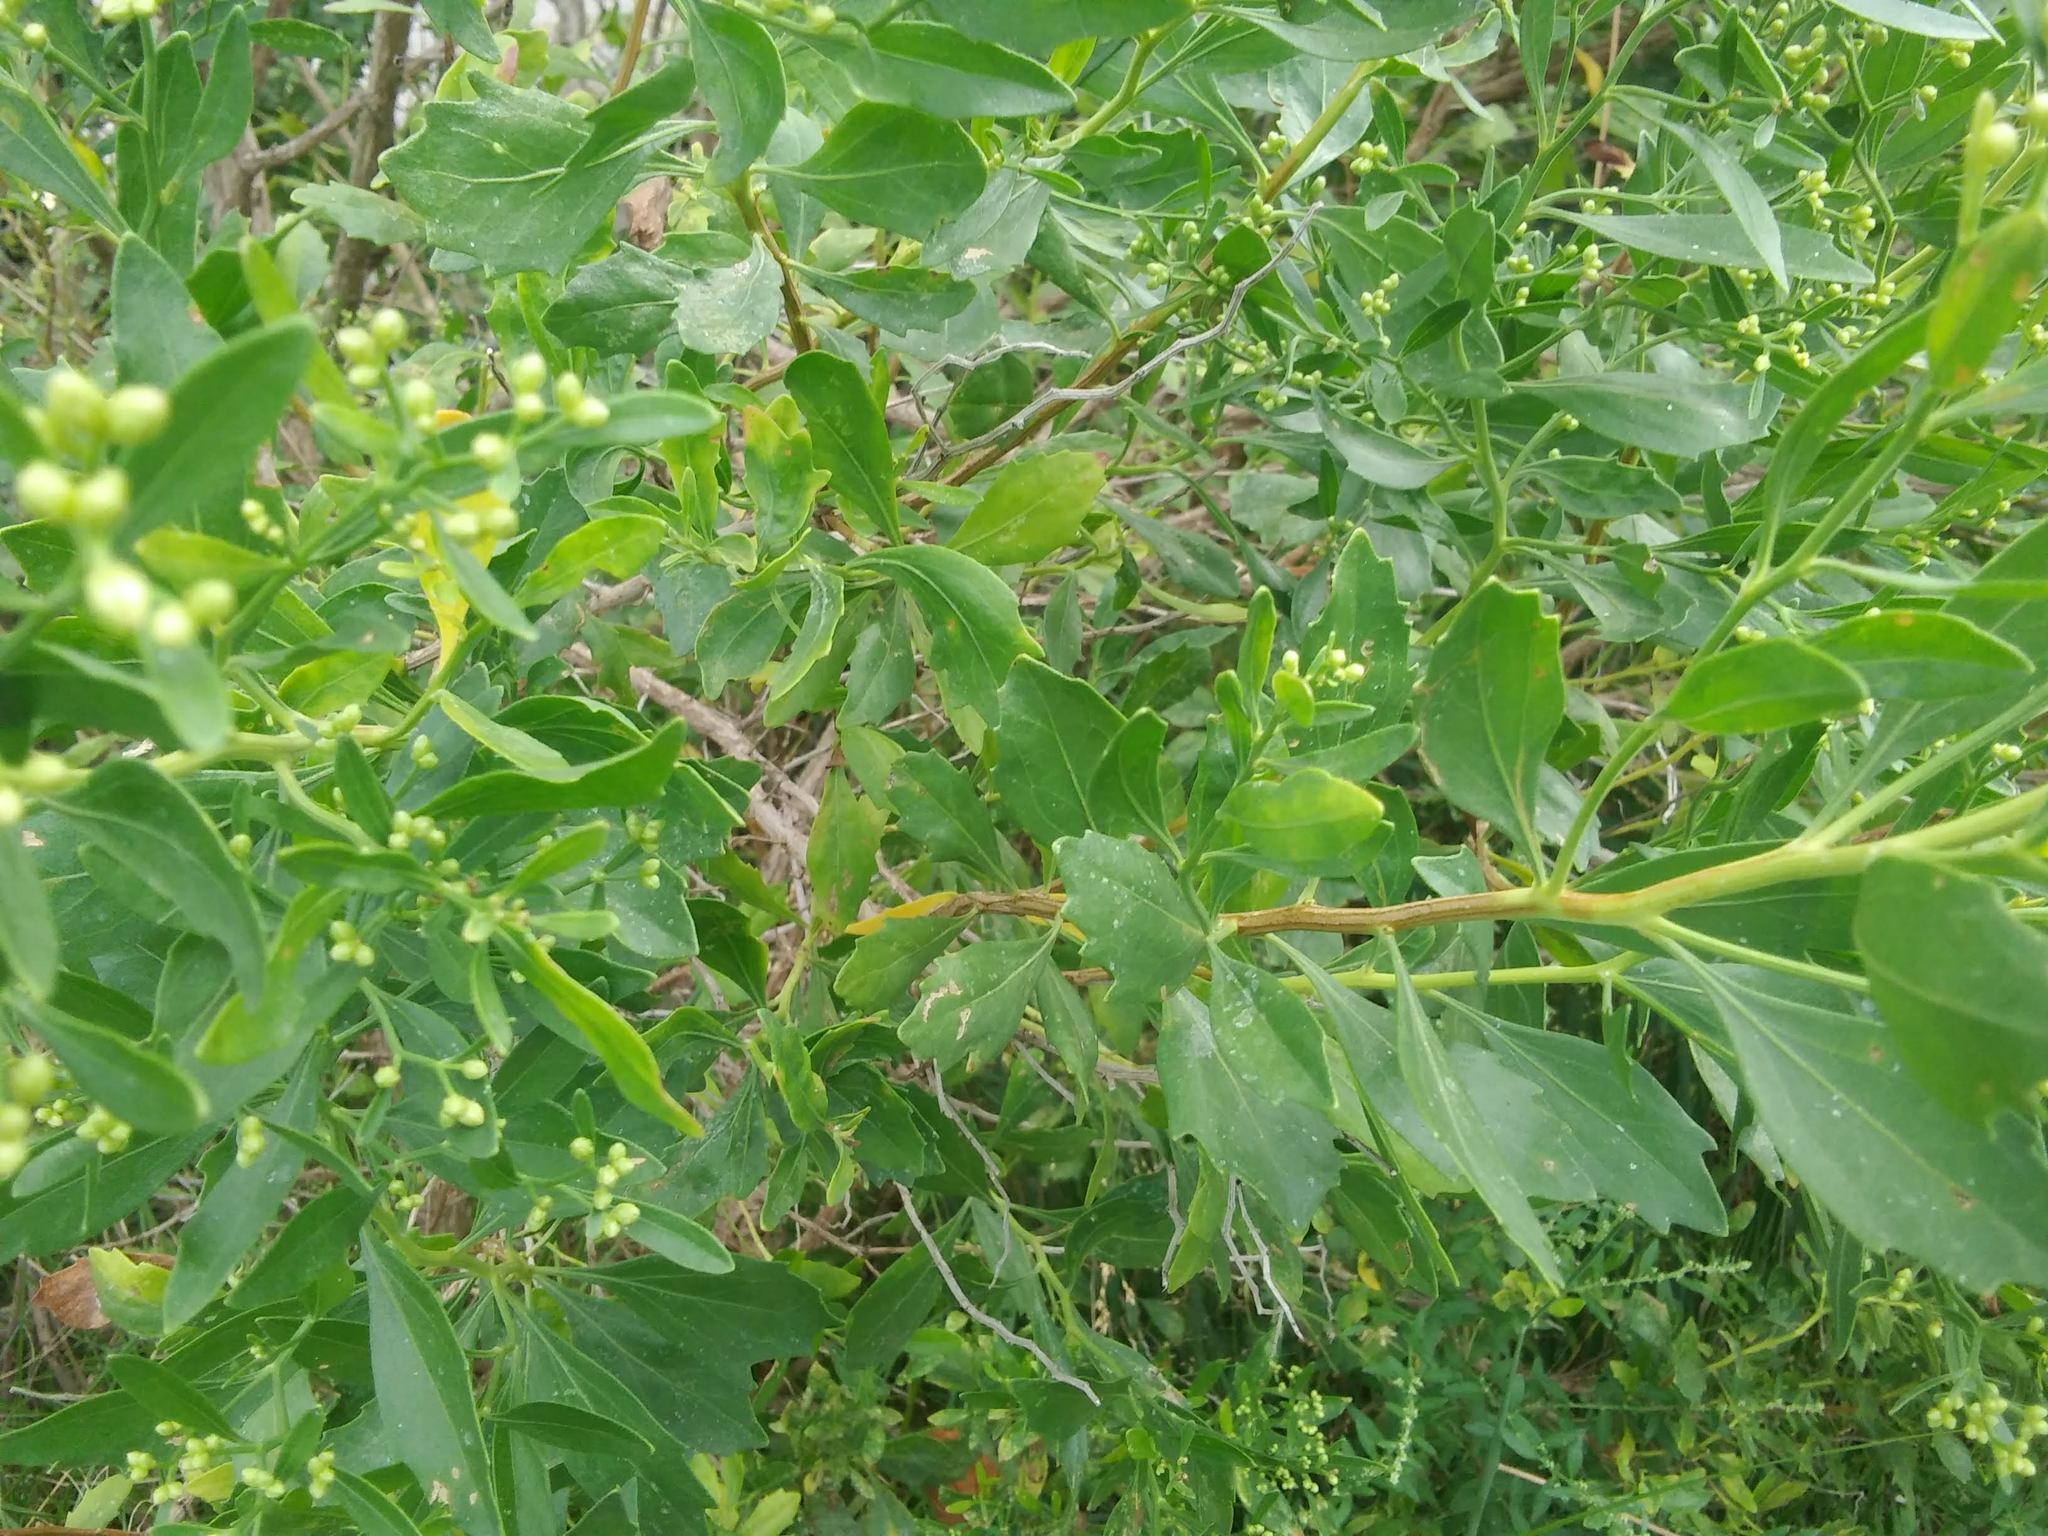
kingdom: Plantae
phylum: Tracheophyta
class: Magnoliopsida
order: Asterales
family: Asteraceae
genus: Baccharis
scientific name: Baccharis halimifolia
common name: Eastern baccharis
